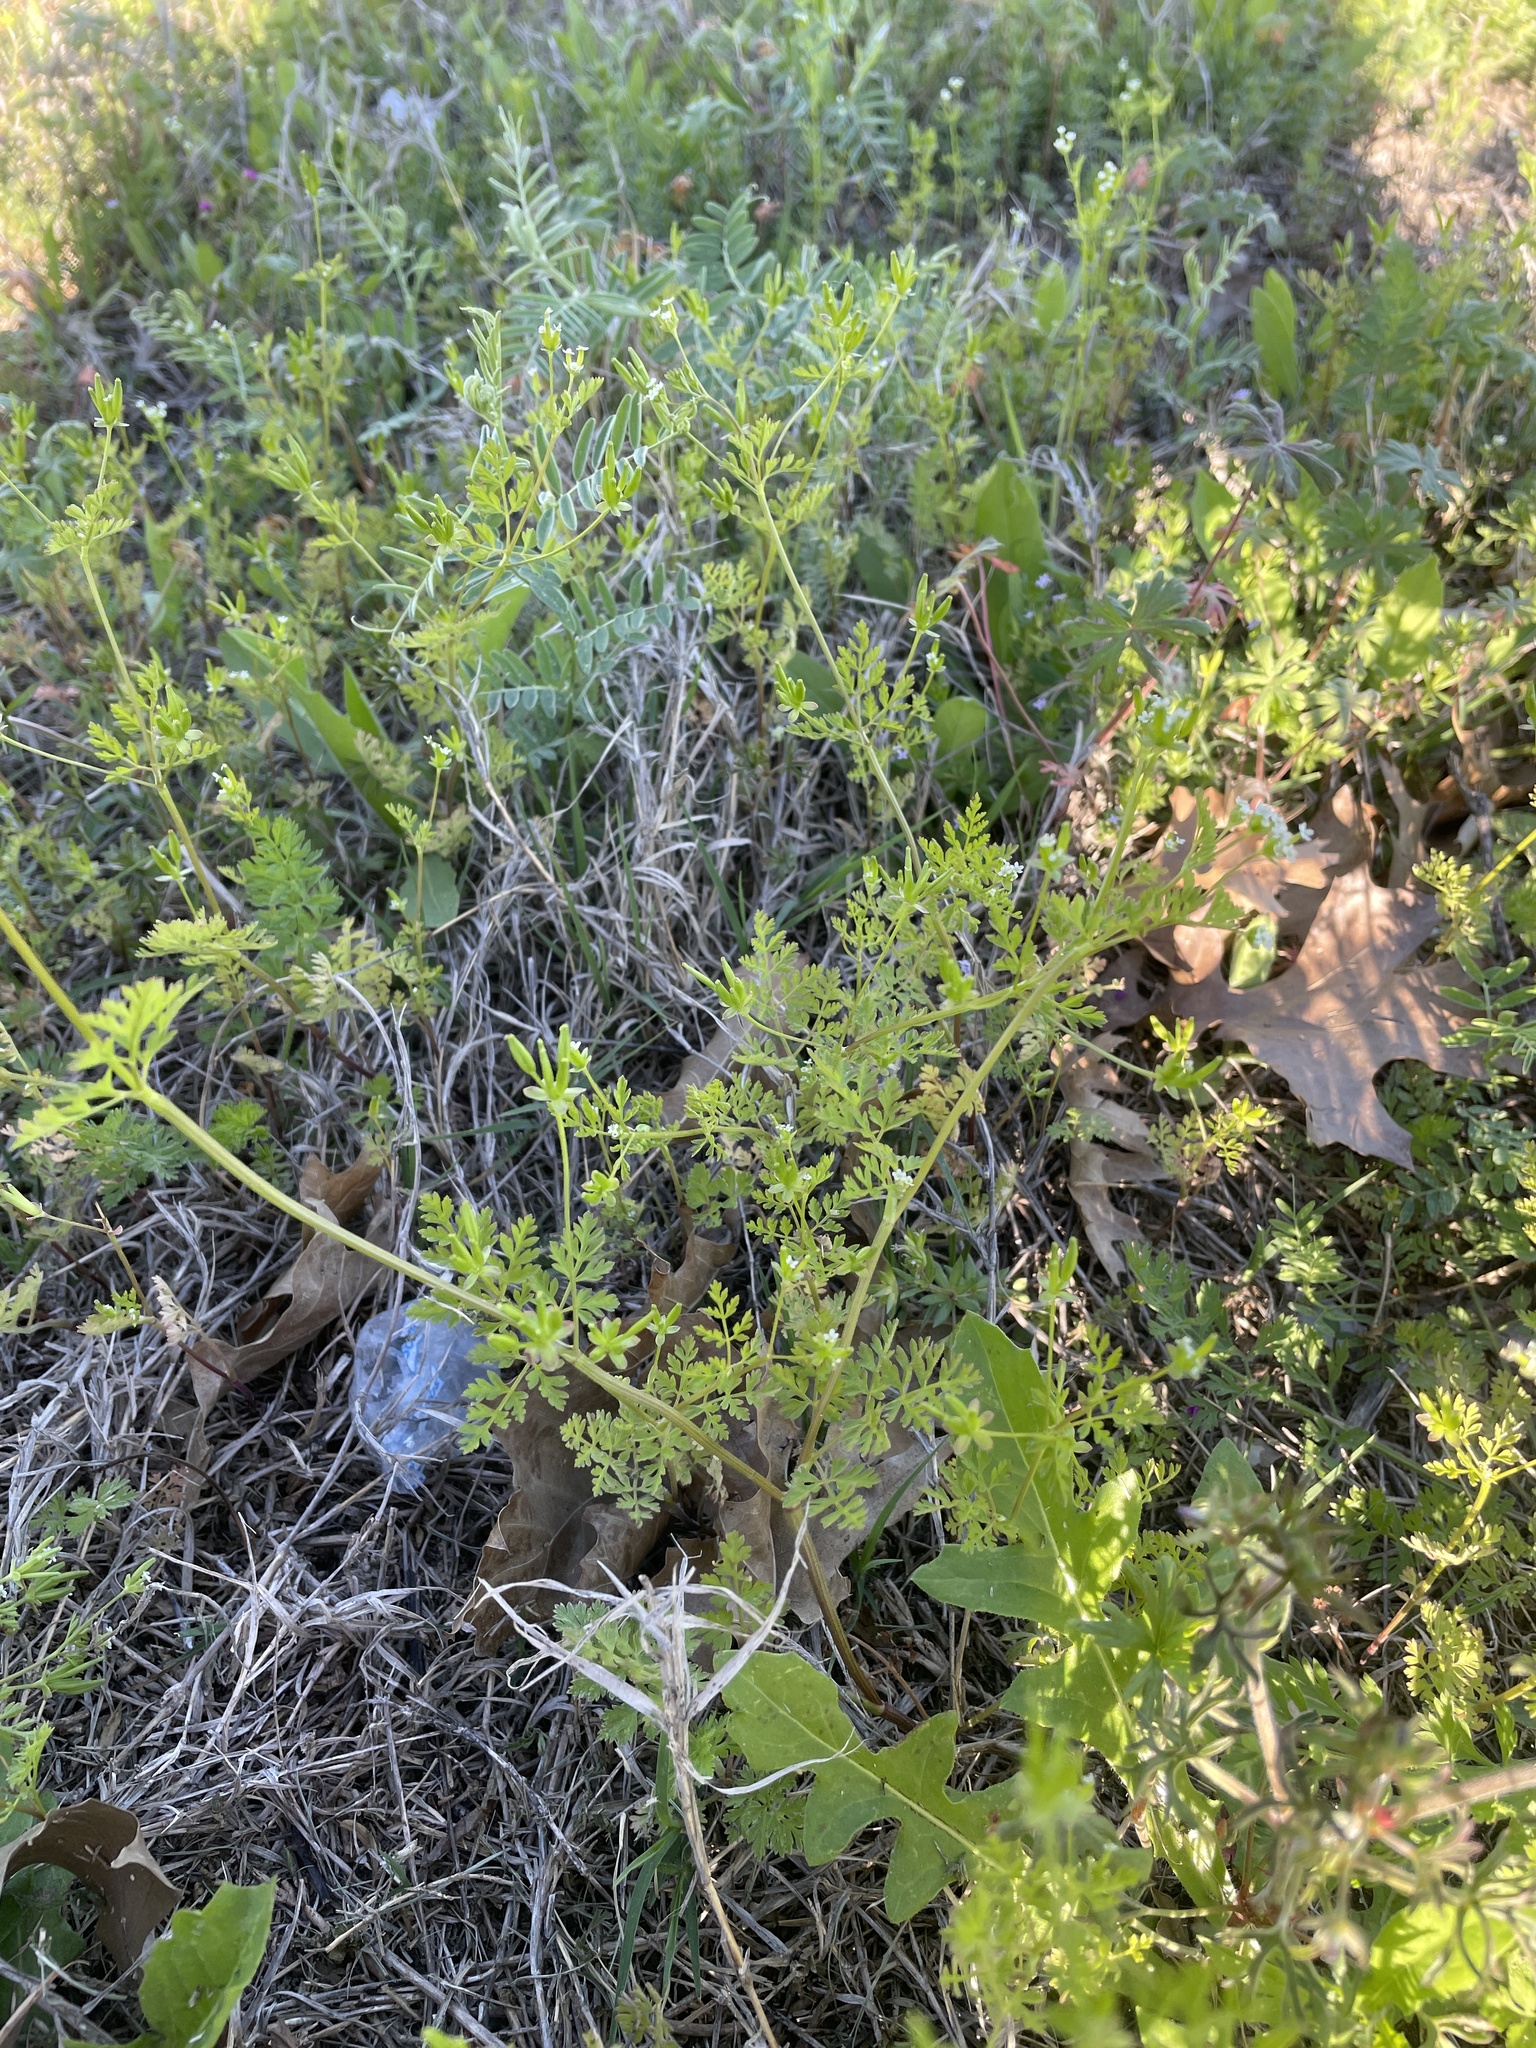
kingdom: Plantae
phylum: Tracheophyta
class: Magnoliopsida
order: Apiales
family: Apiaceae
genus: Chaerophyllum
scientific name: Chaerophyllum tainturieri
